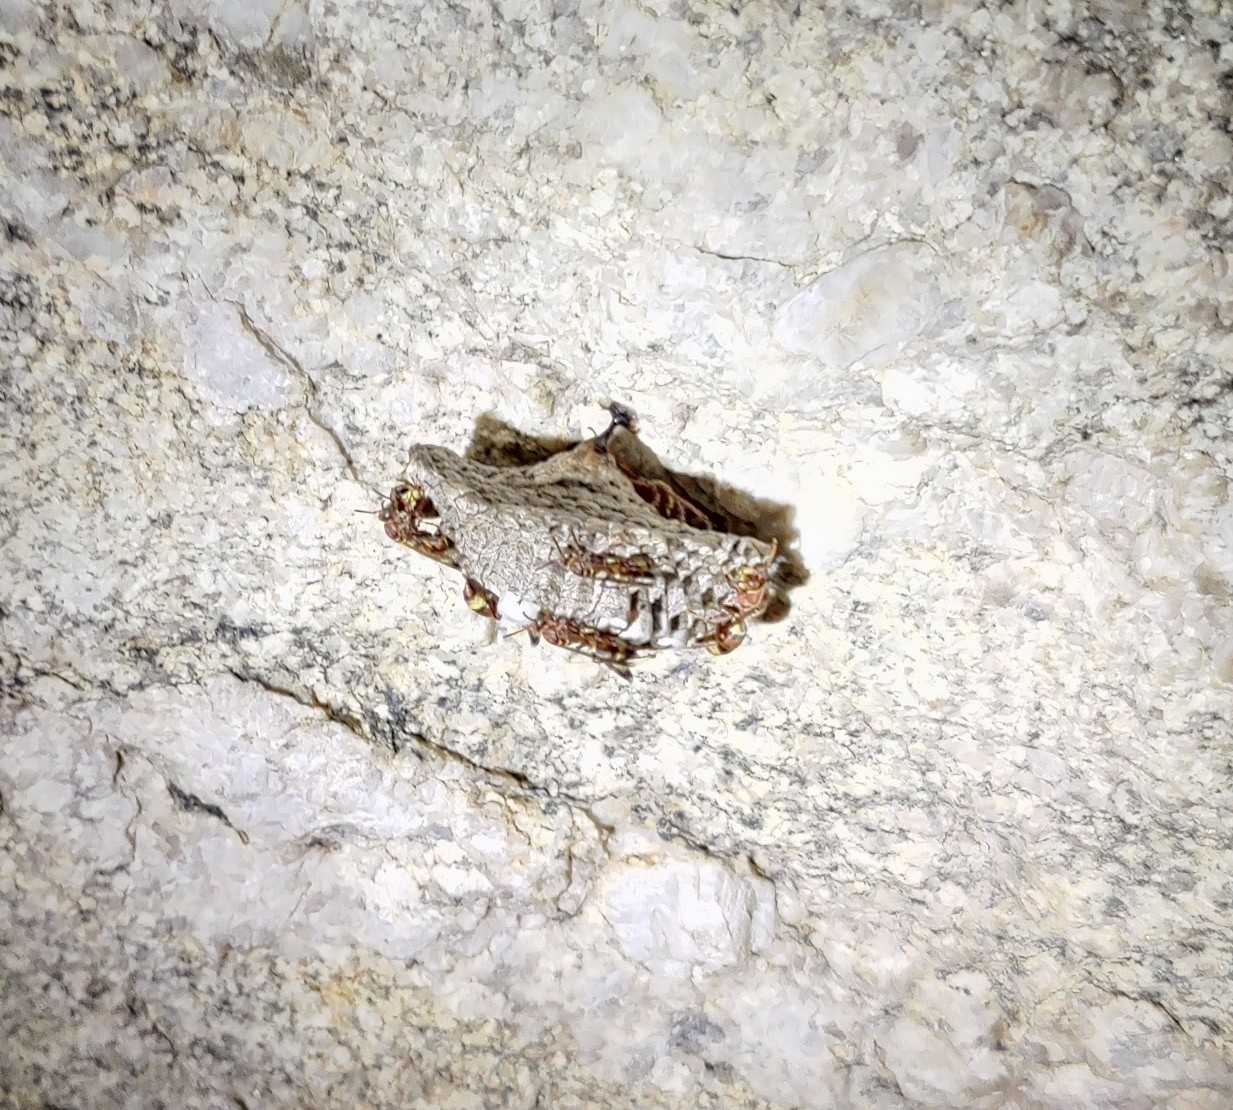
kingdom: Animalia
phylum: Arthropoda
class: Insecta
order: Hymenoptera
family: Eumenidae
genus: Polistes
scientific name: Polistes stigma
